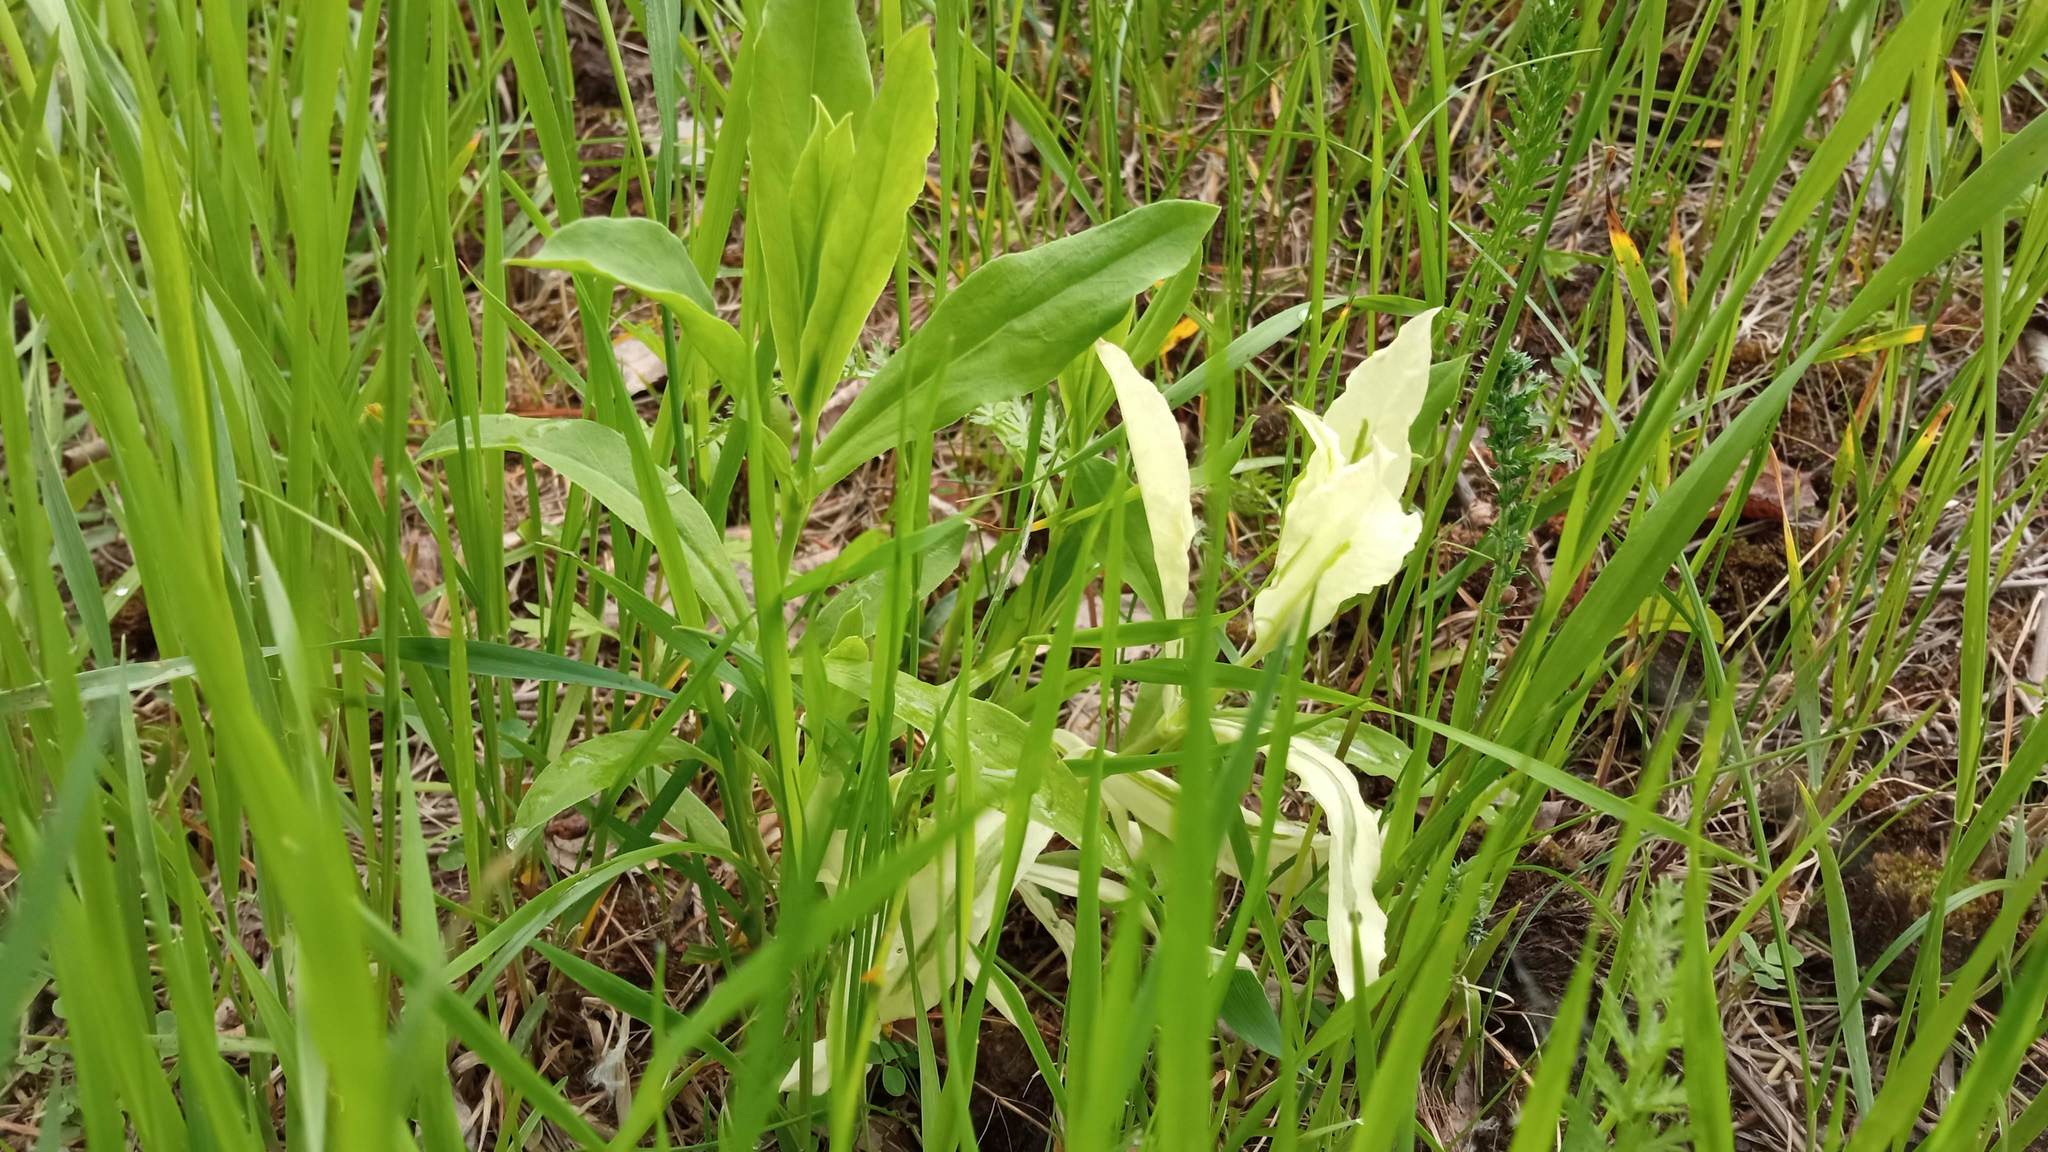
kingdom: Plantae
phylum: Tracheophyta
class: Magnoliopsida
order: Asterales
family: Asteraceae
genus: Cirsium
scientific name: Cirsium arvense
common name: Creeping thistle
